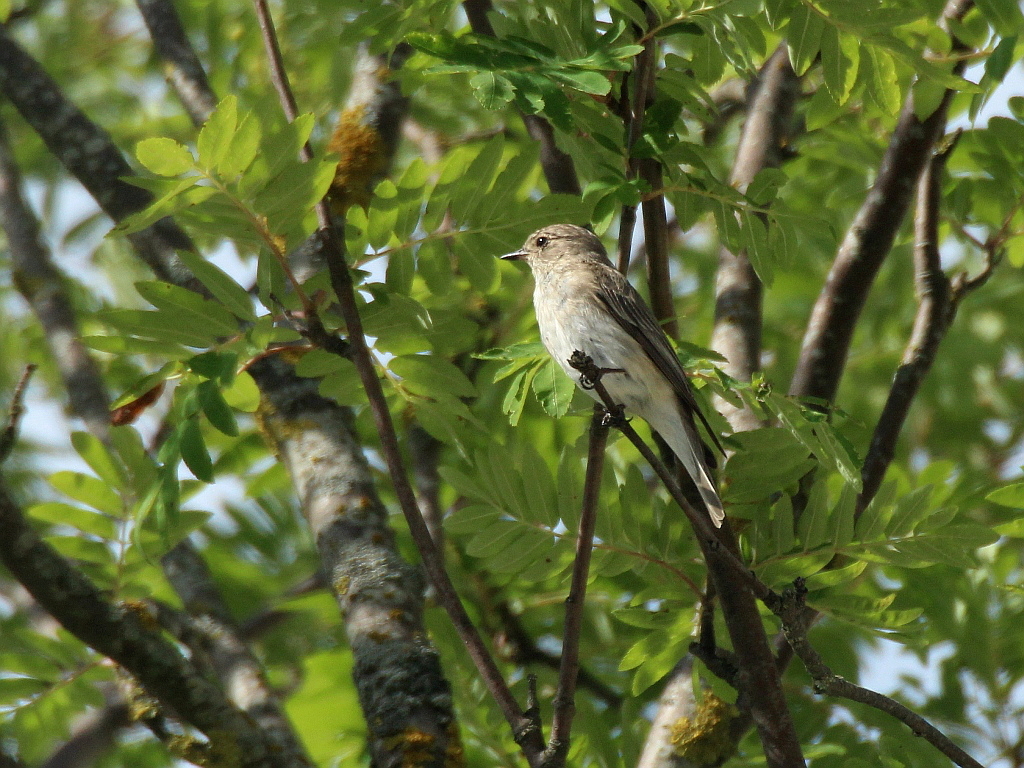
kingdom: Animalia
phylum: Chordata
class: Aves
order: Passeriformes
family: Muscicapidae
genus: Muscicapa
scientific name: Muscicapa striata
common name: Spotted flycatcher
